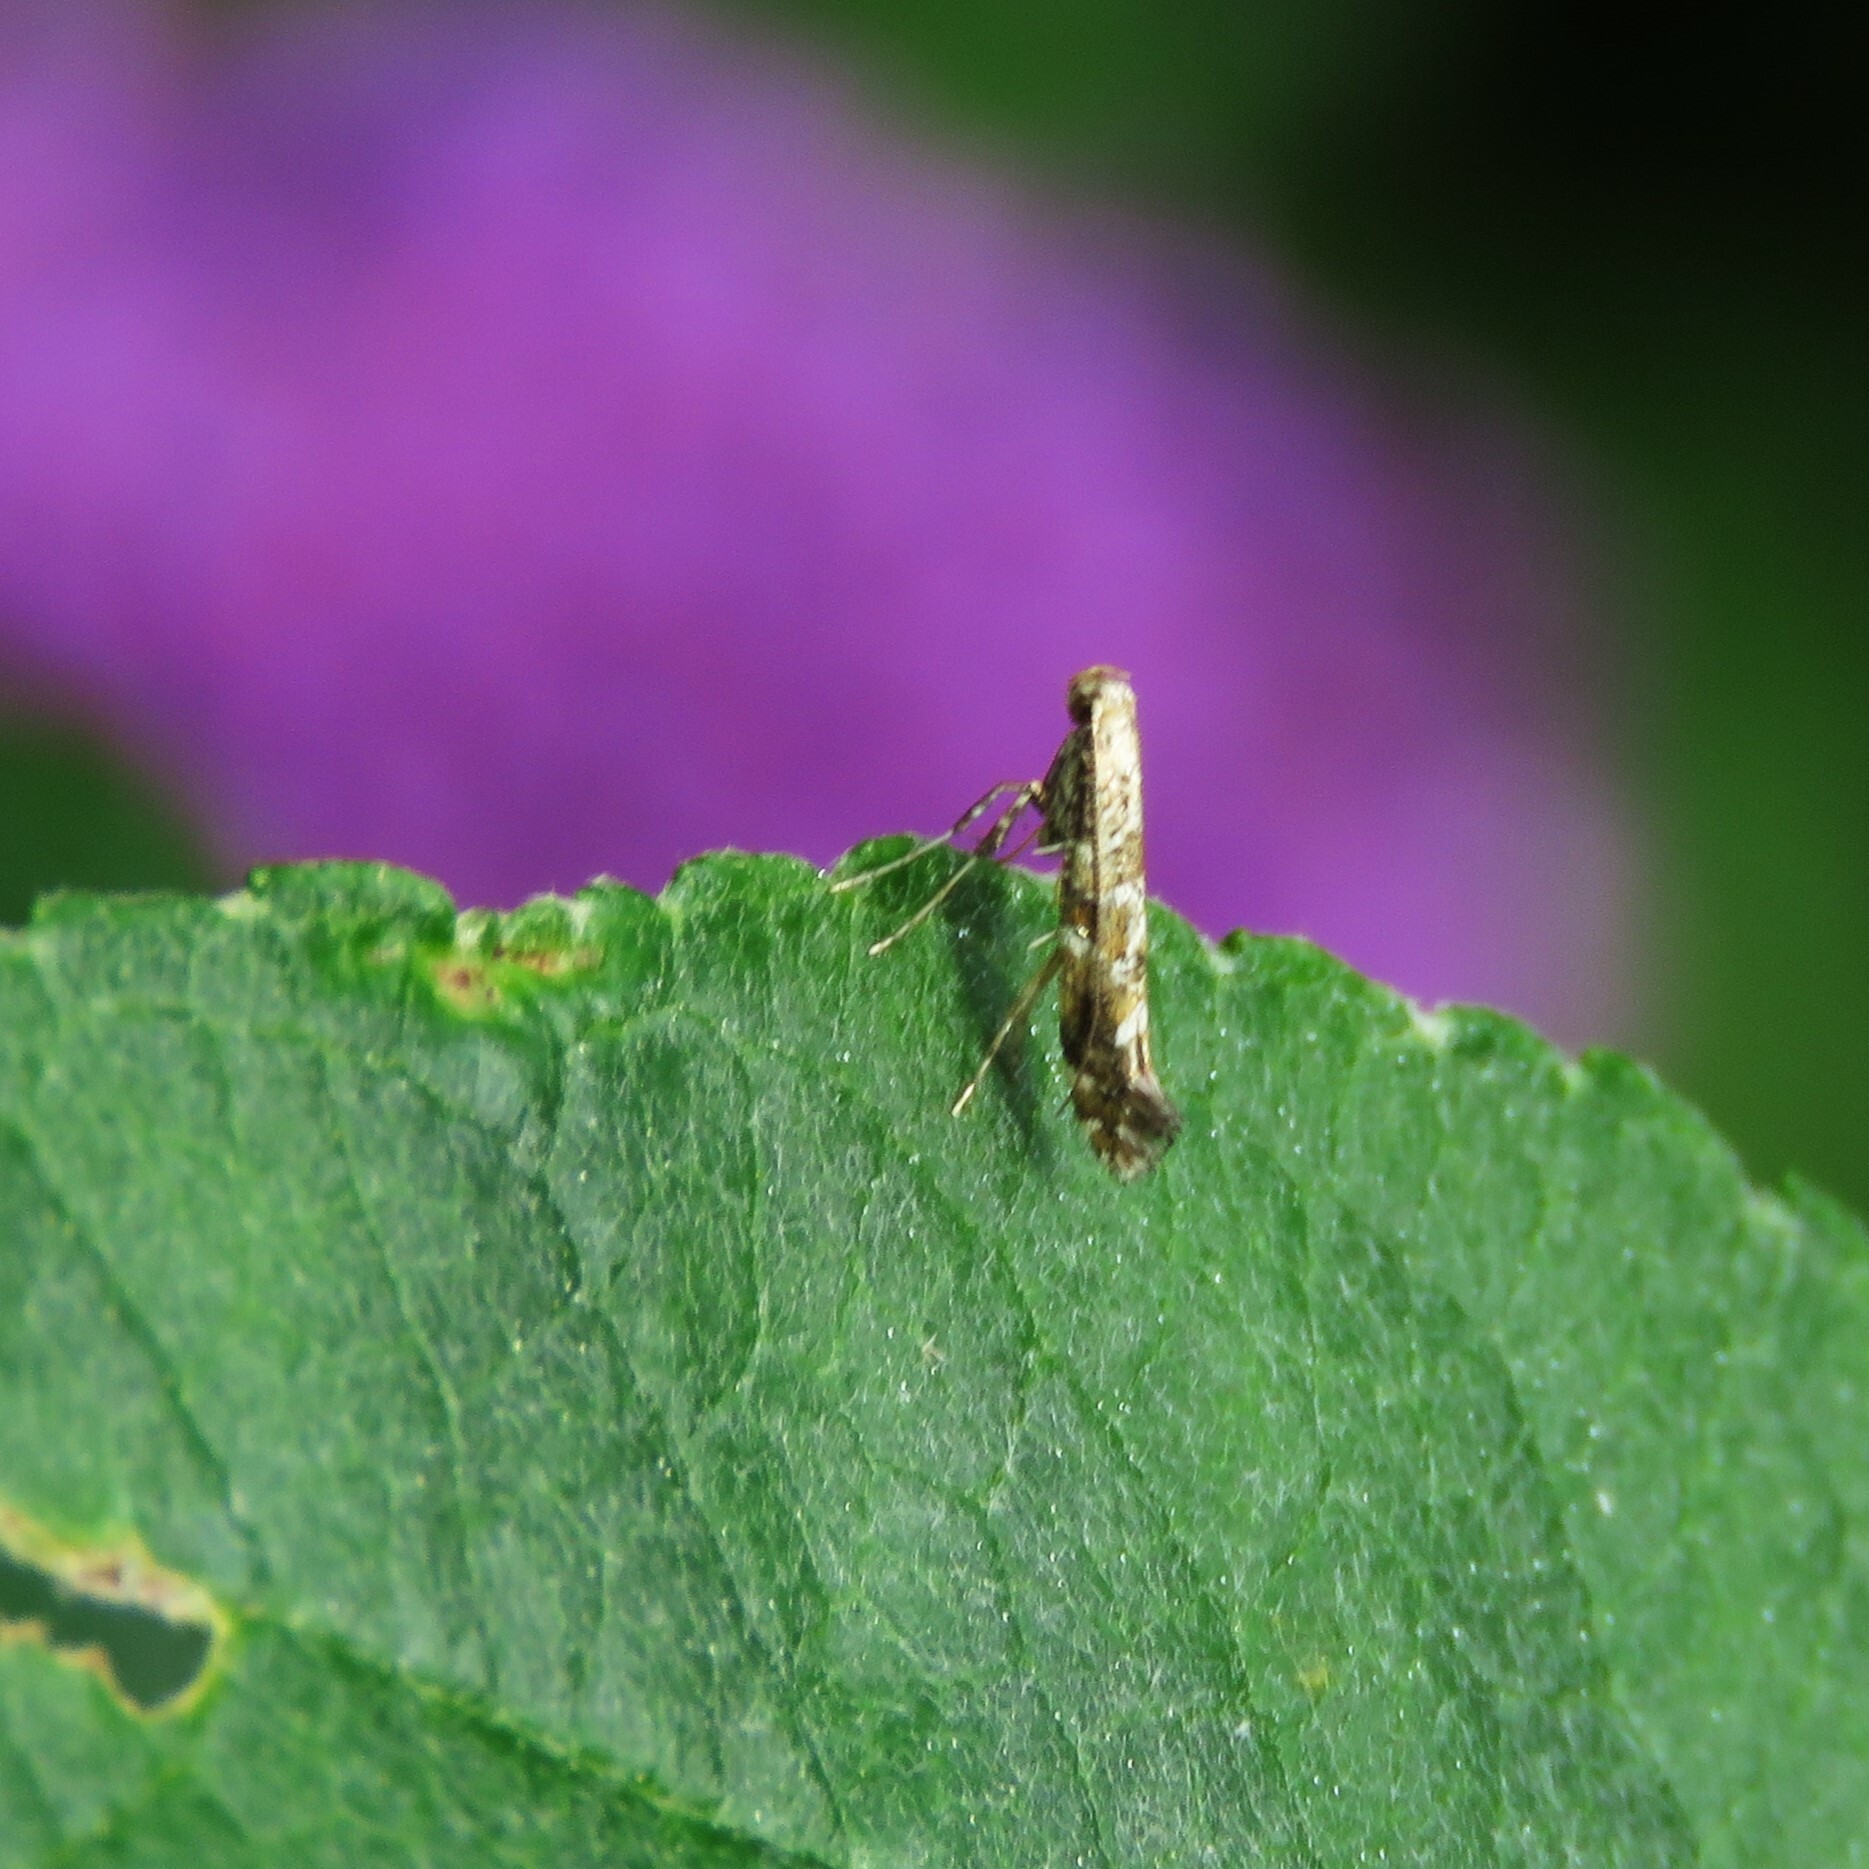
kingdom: Animalia
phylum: Arthropoda
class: Insecta
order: Lepidoptera
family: Gracillariidae
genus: Gracillaria
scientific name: Gracillaria syringella
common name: Common slender
